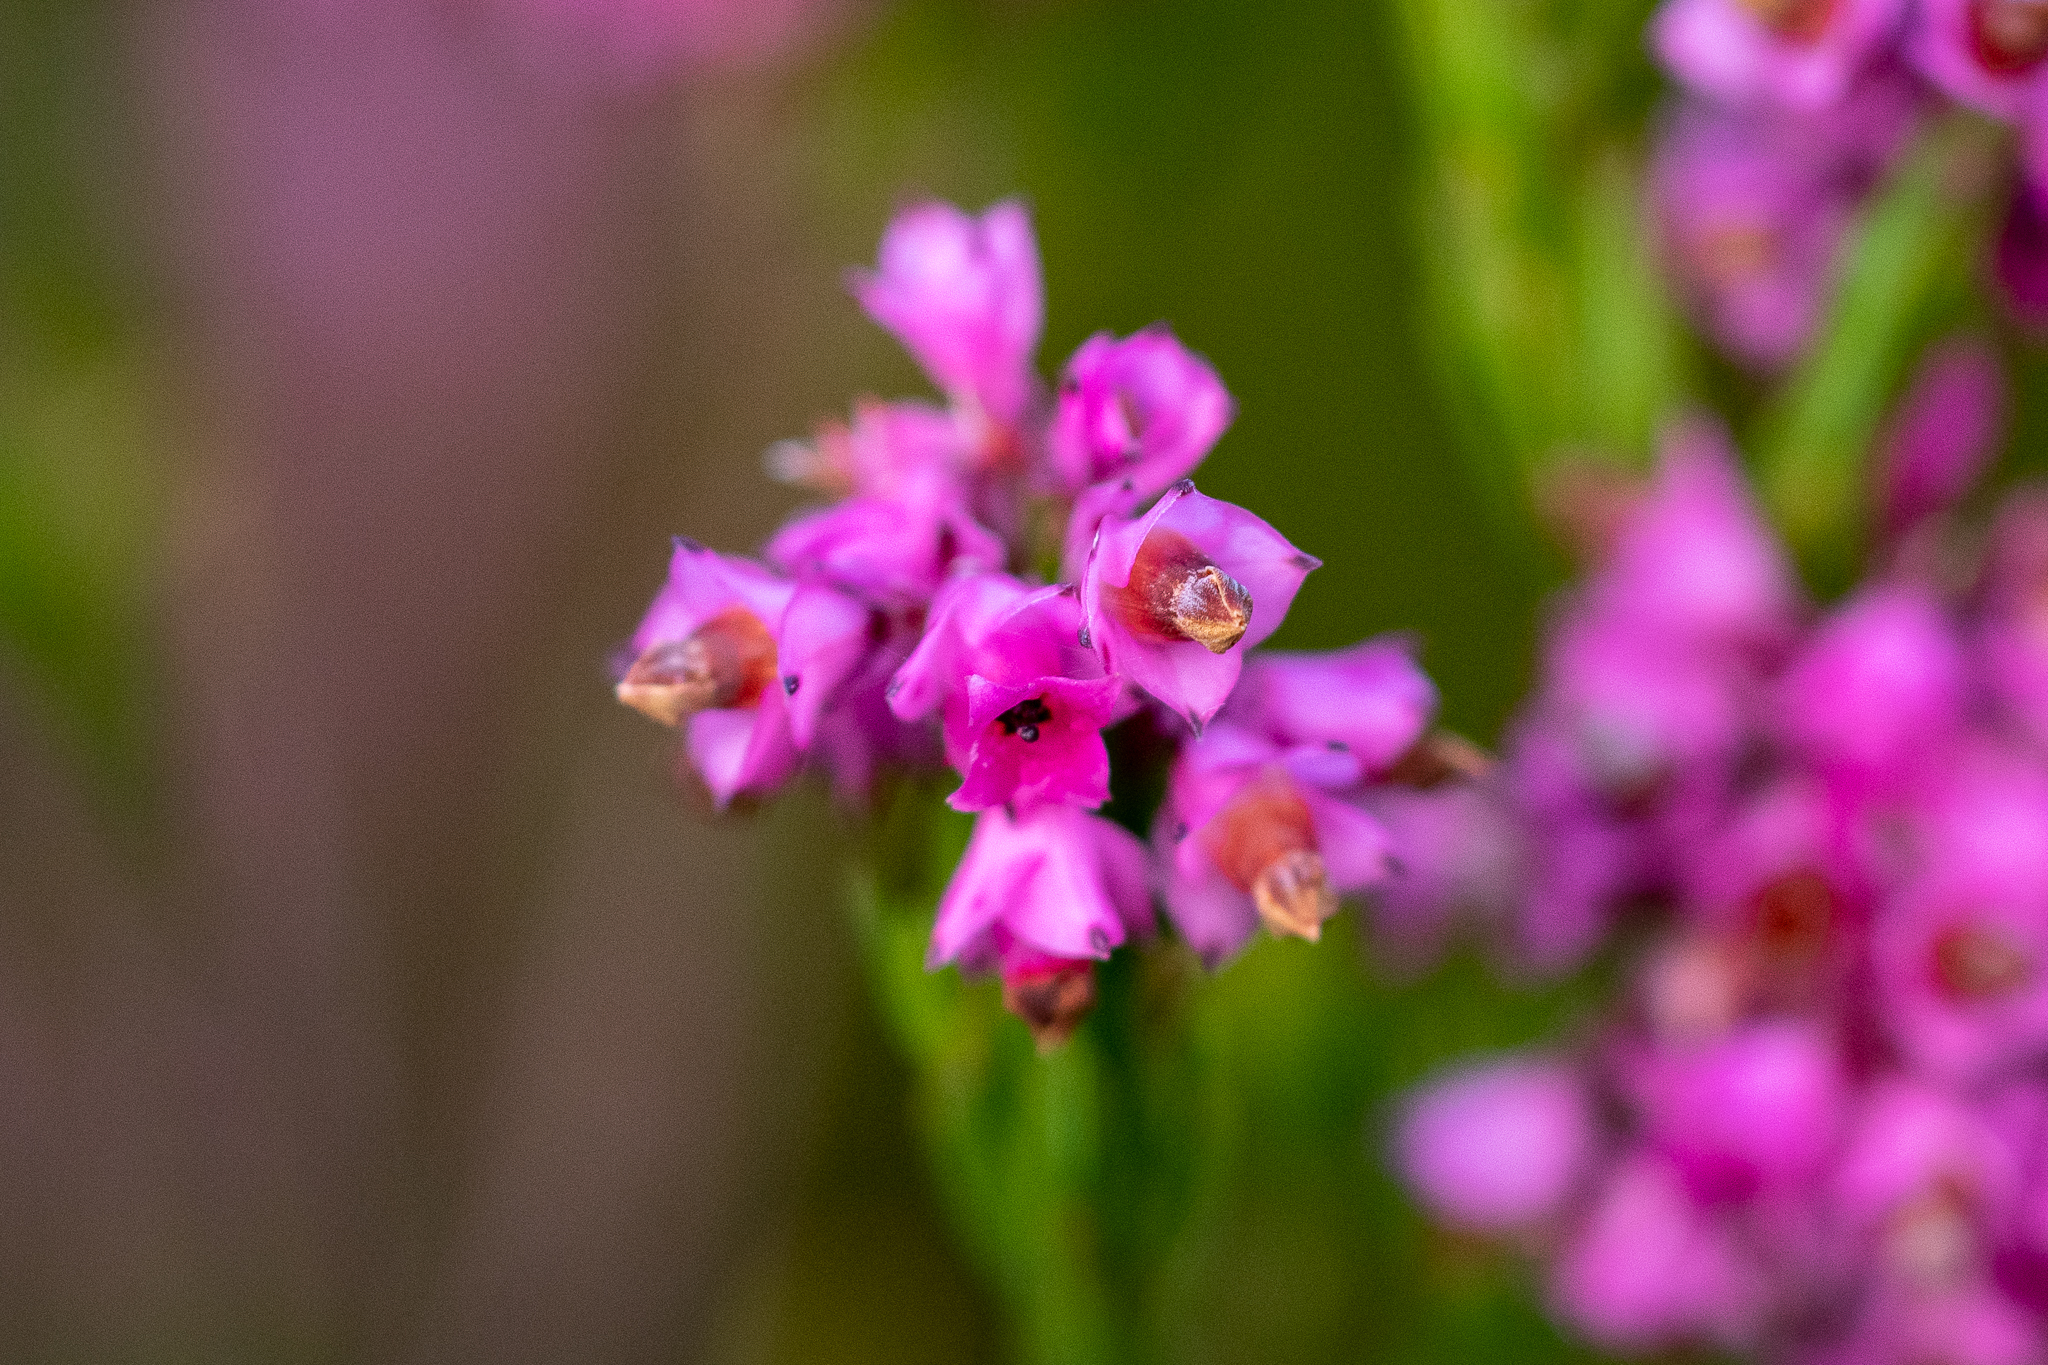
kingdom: Plantae
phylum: Tracheophyta
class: Magnoliopsida
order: Ericales
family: Ericaceae
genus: Erica
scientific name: Erica corifolia
